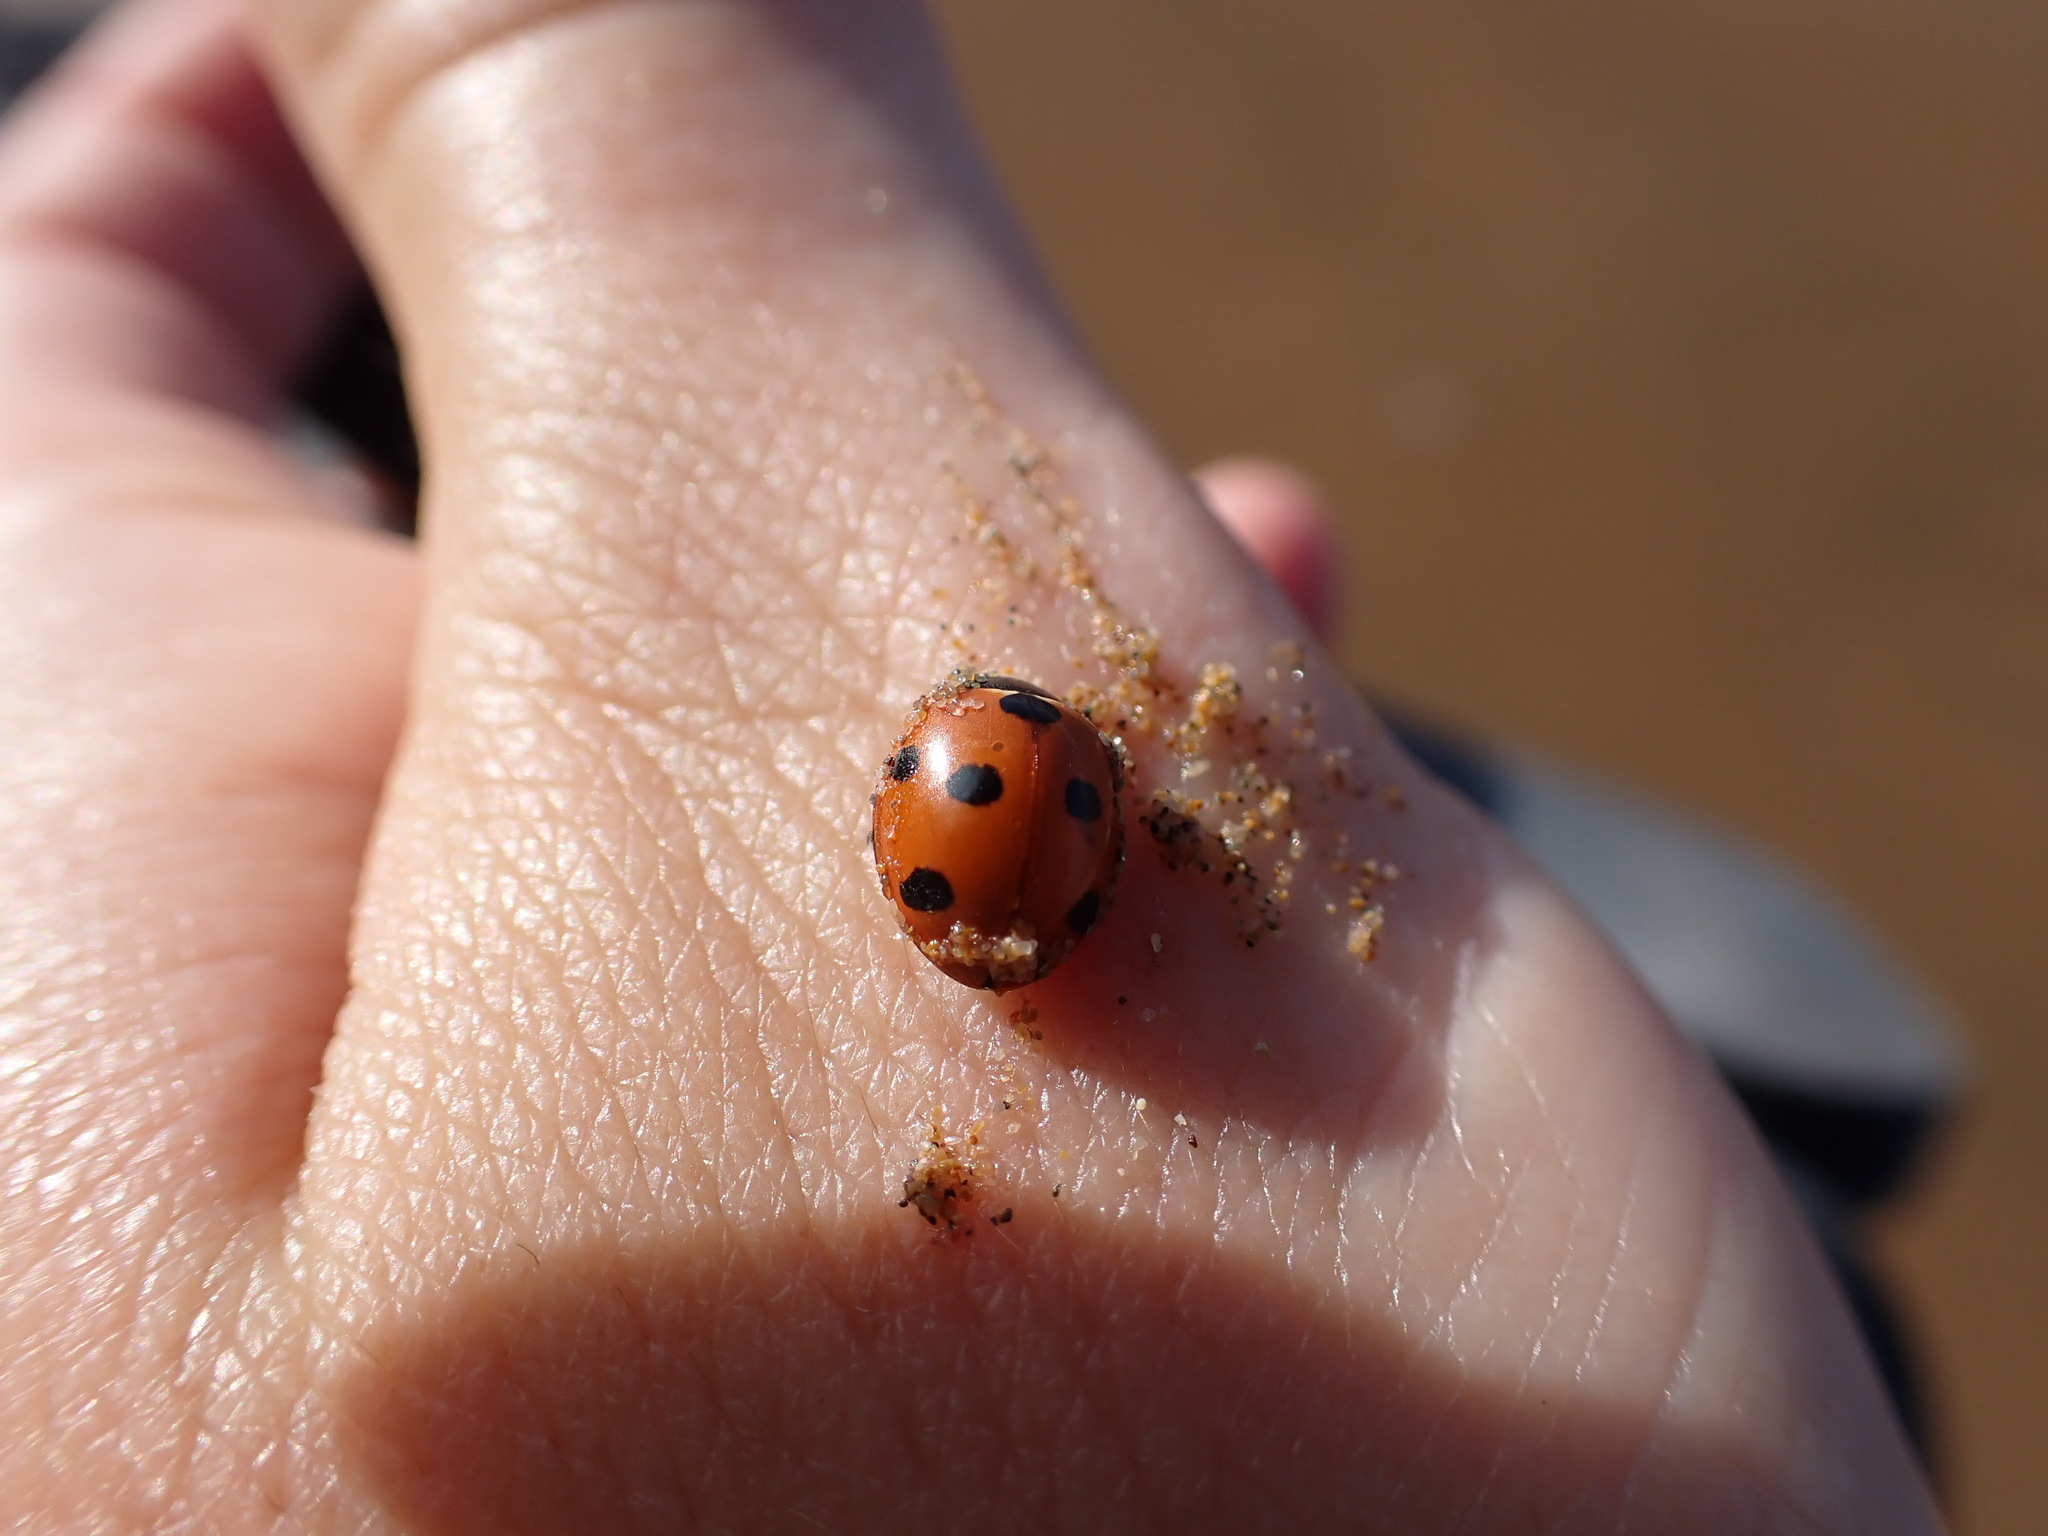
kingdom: Animalia
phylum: Arthropoda
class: Insecta
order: Coleoptera
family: Coccinellidae
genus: Coccinella
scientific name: Coccinella algerica
